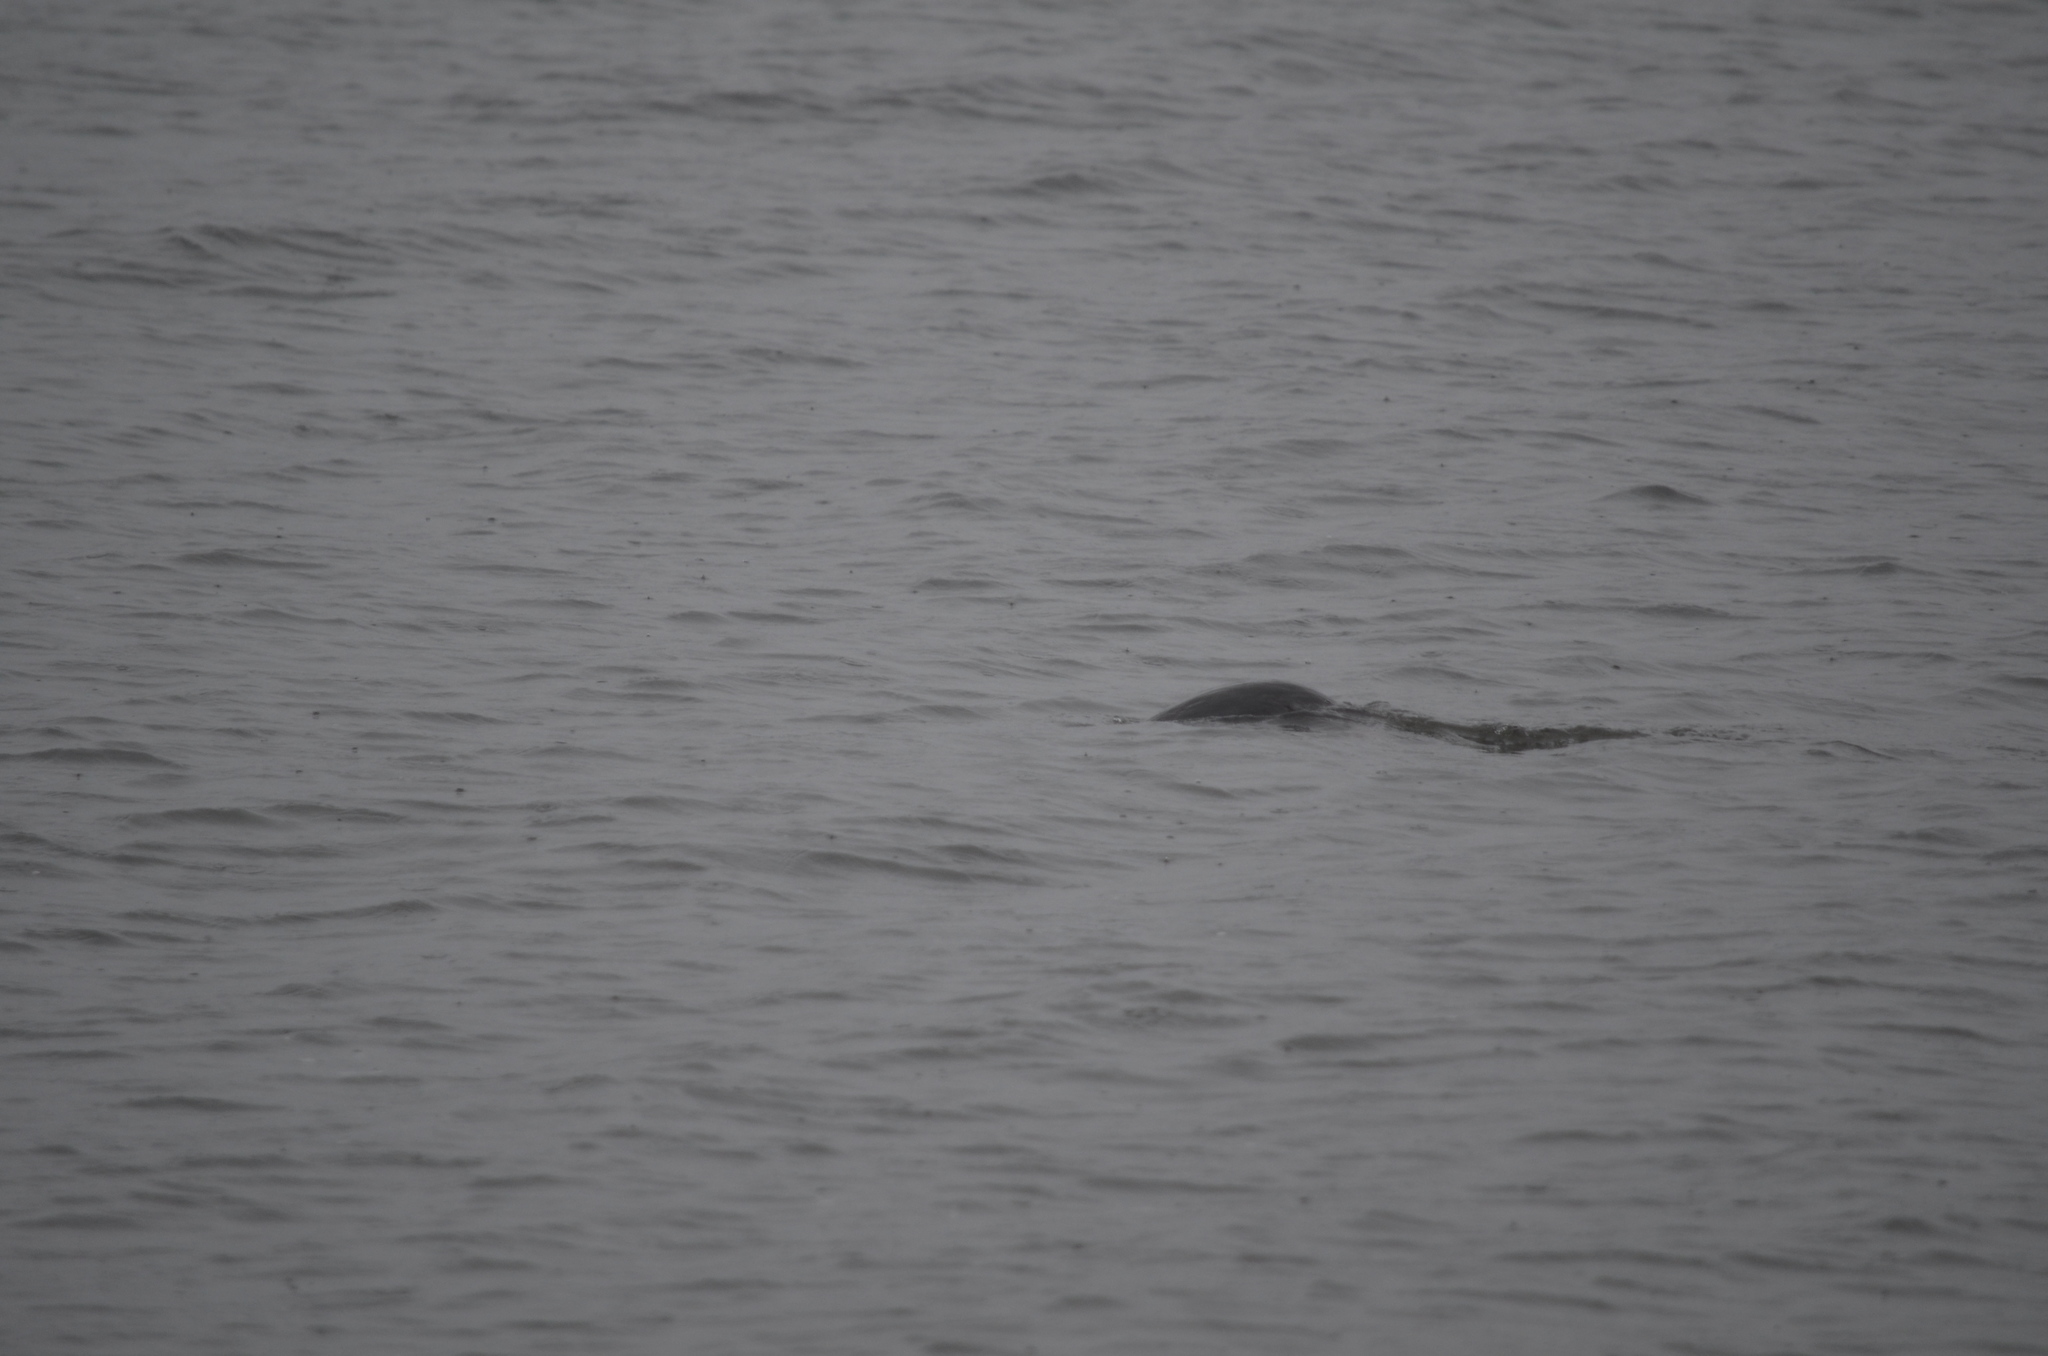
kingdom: Animalia
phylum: Chordata
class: Mammalia
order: Carnivora
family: Mustelidae
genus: Lontra
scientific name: Lontra canadensis
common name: North american river otter
